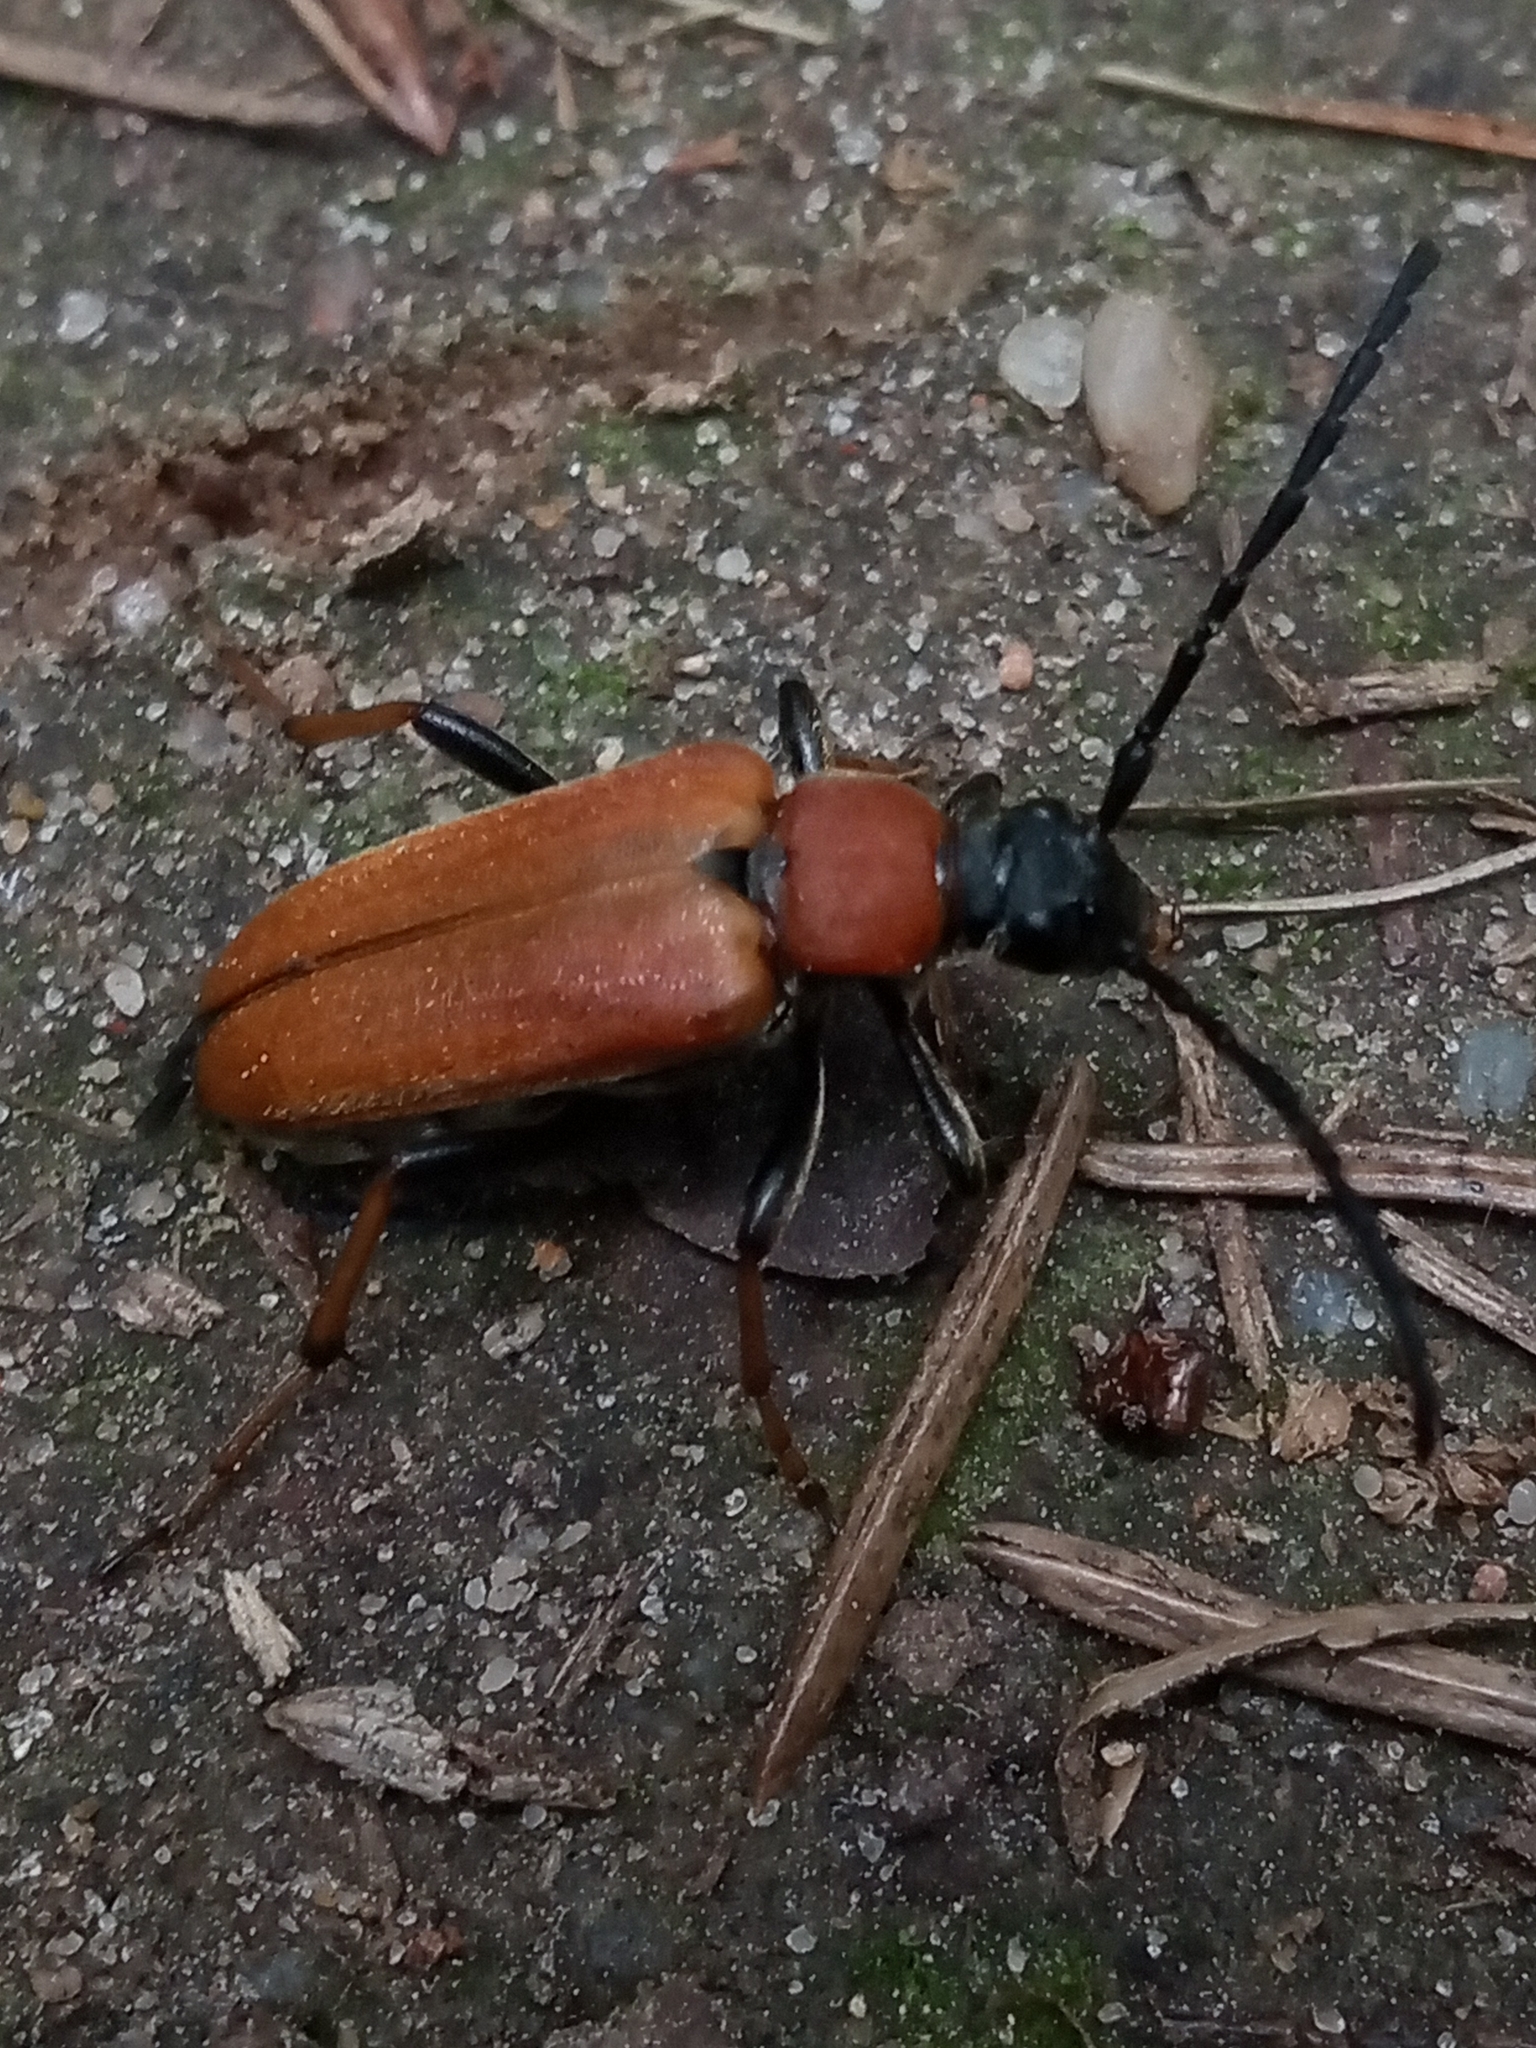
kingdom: Animalia
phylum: Arthropoda
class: Insecta
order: Coleoptera
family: Cerambycidae
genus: Stictoleptura
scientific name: Stictoleptura rubra
